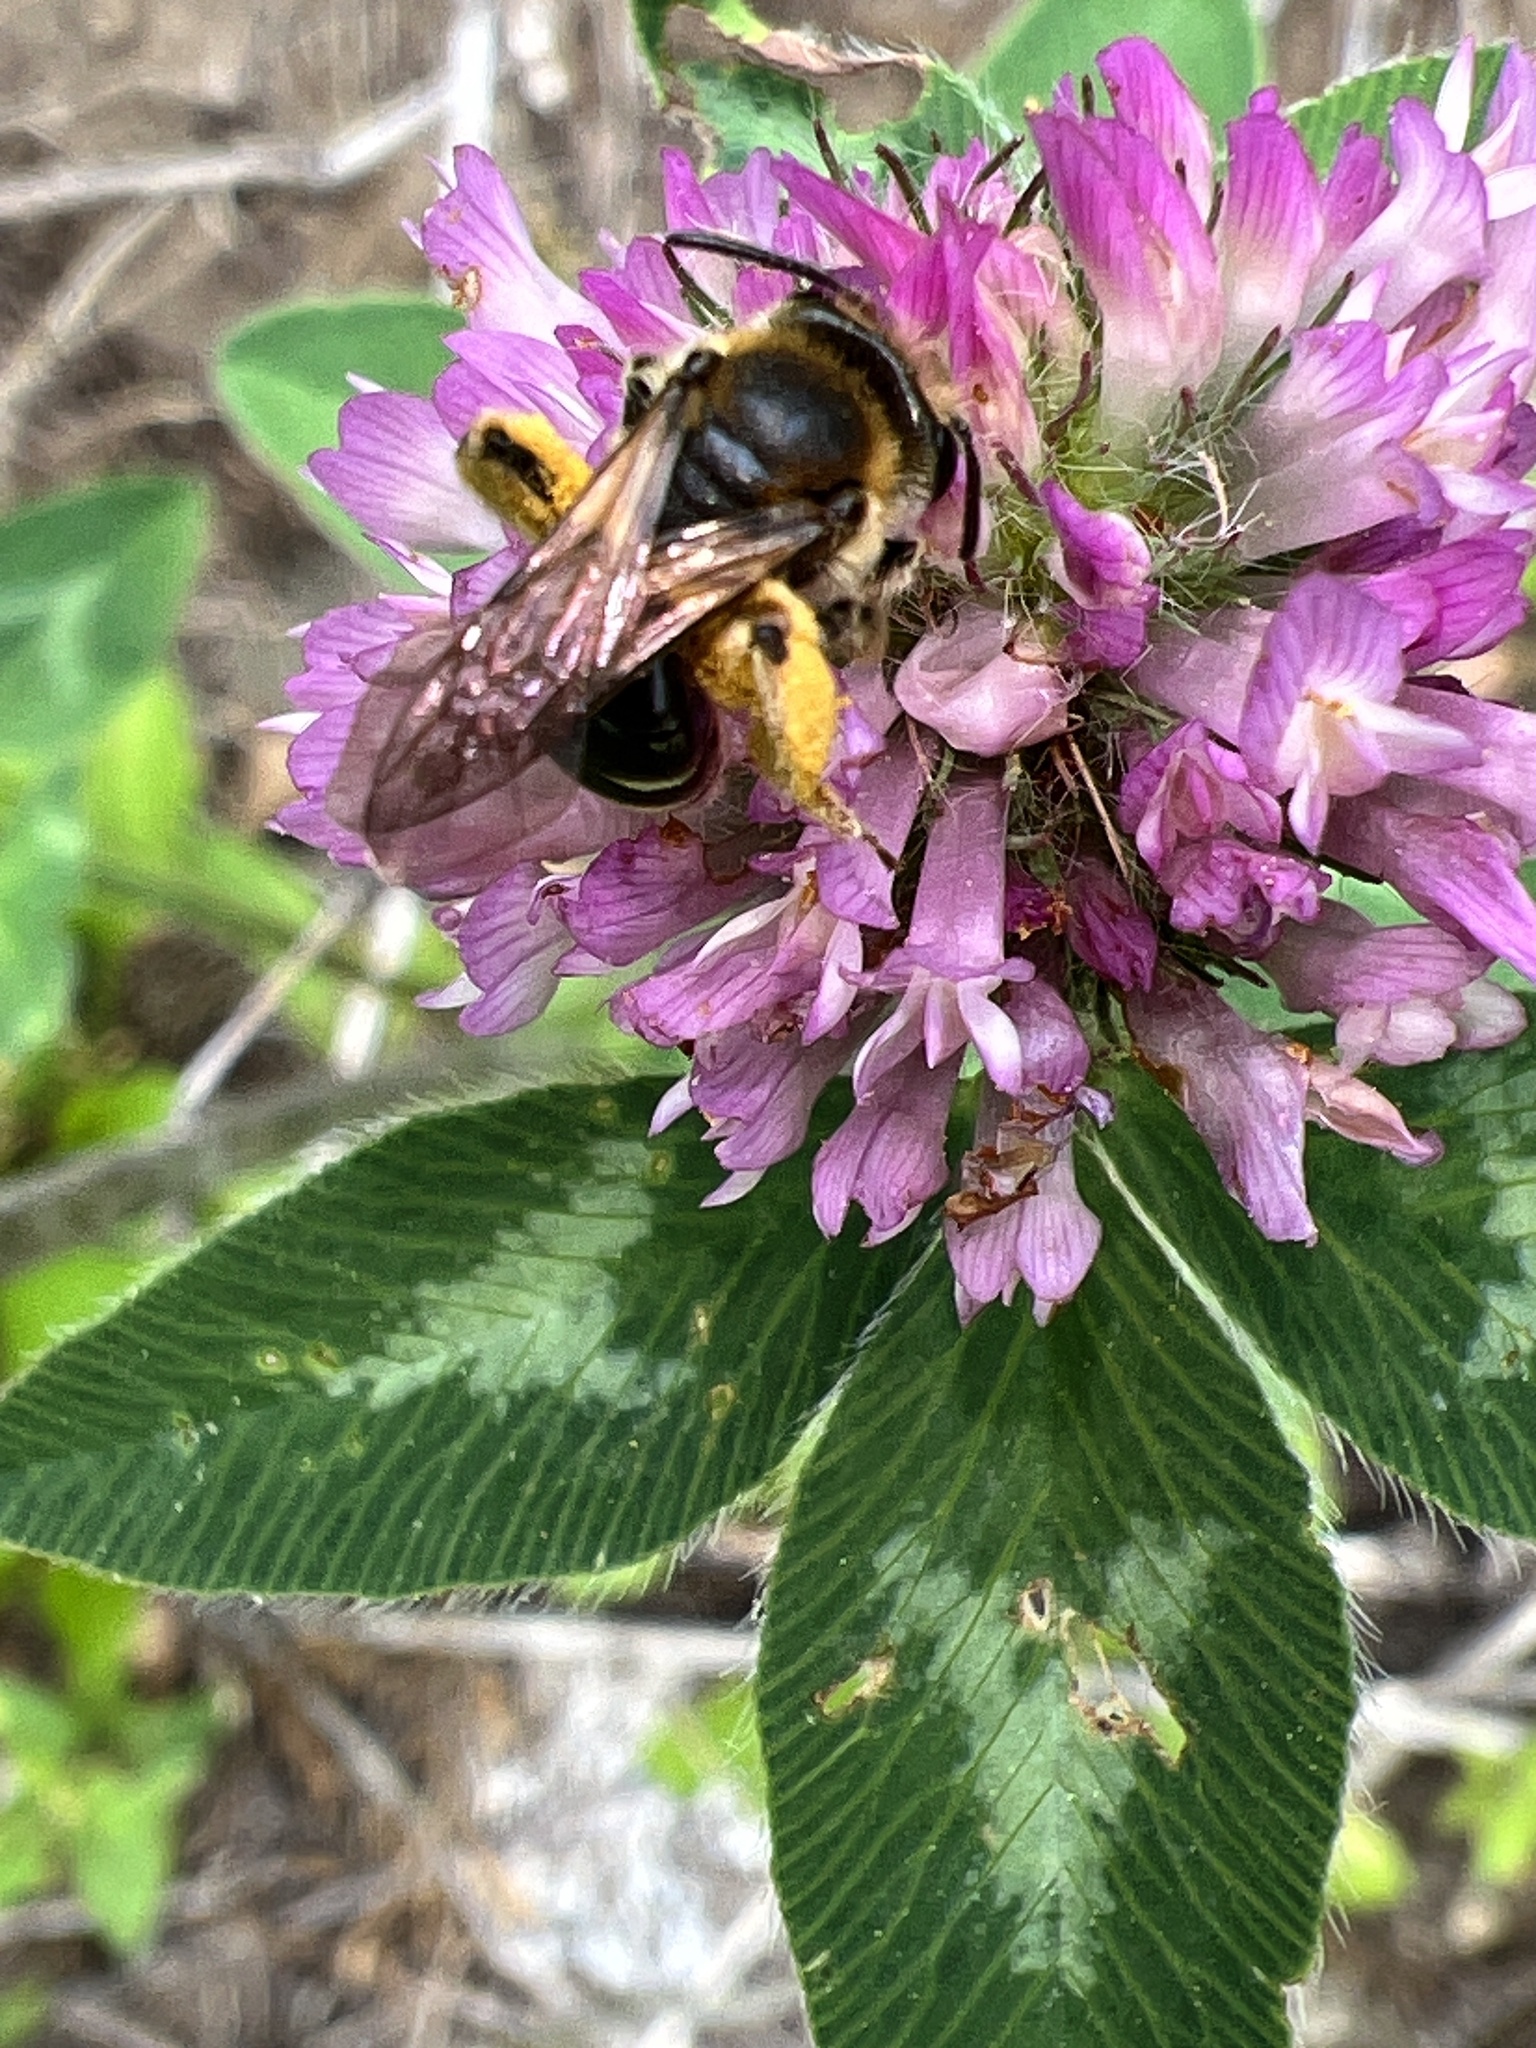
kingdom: Animalia
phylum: Arthropoda
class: Insecta
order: Hymenoptera
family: Andrenidae
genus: Andrena
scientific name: Andrena wilkella
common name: Wilke's mining bee
